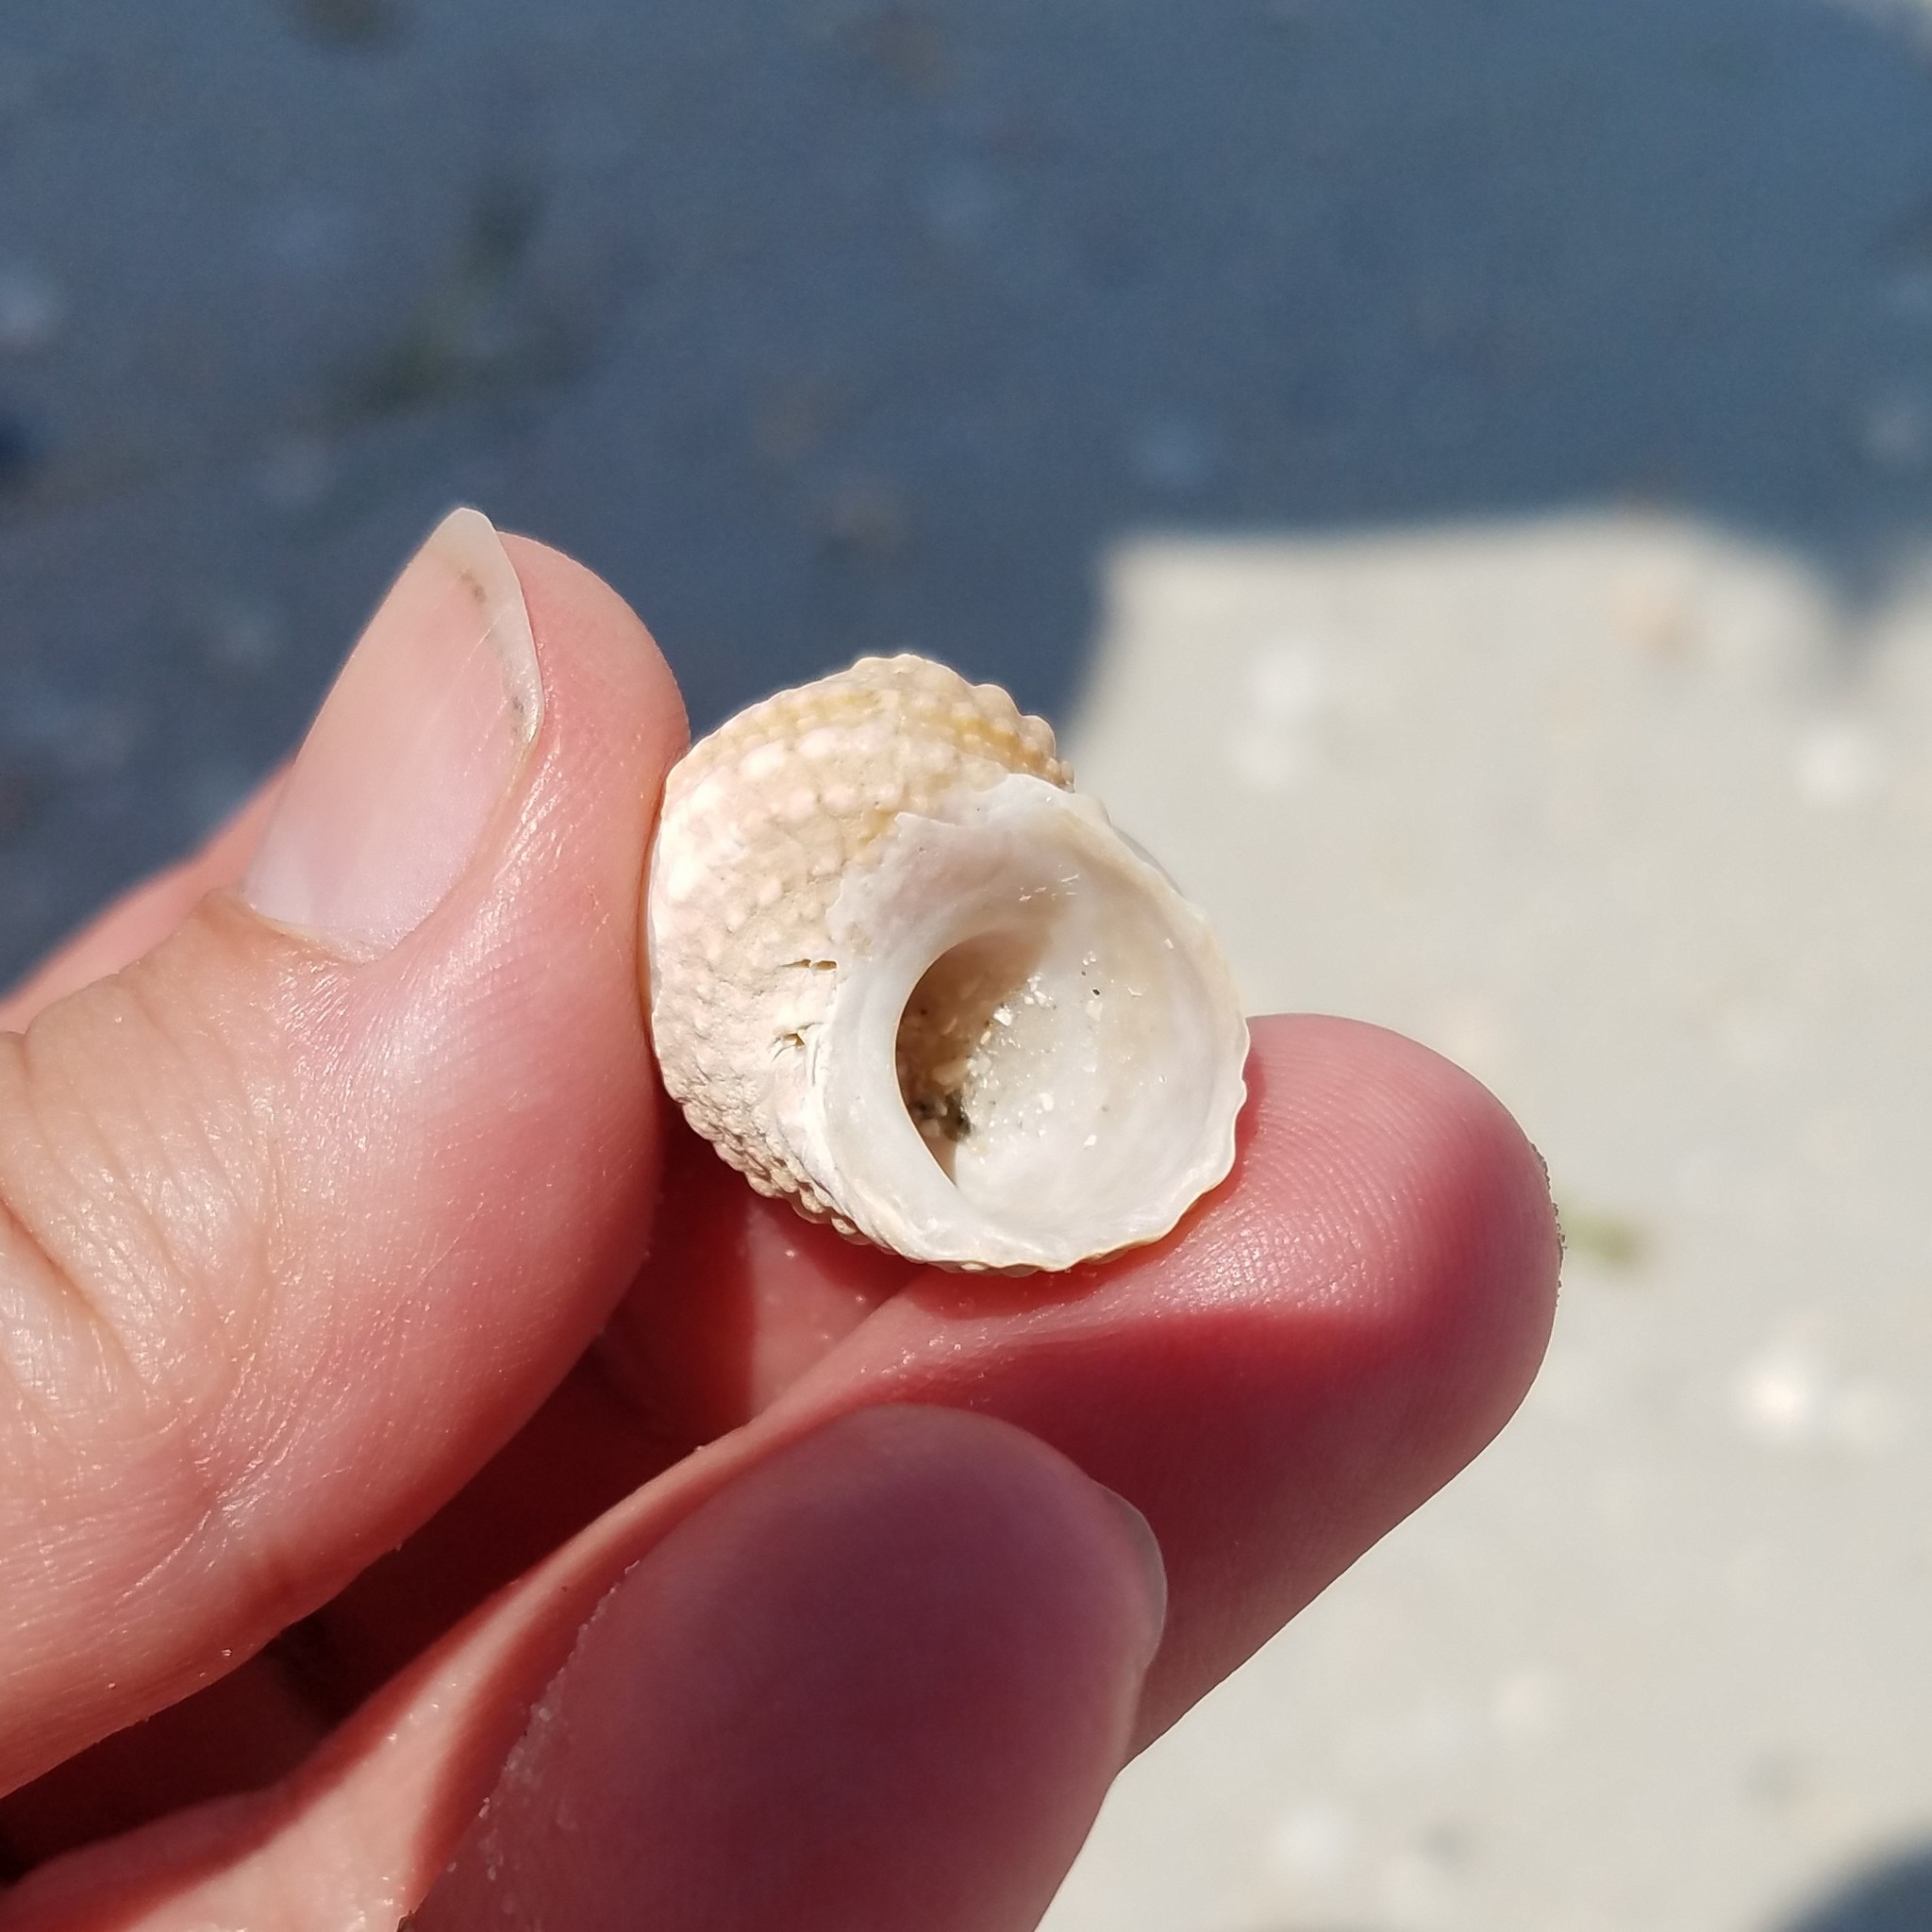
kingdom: Animalia
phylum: Mollusca
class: Gastropoda
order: Trochida
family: Turbinidae
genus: Turbo
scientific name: Turbo castanea
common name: Chestnut turban
